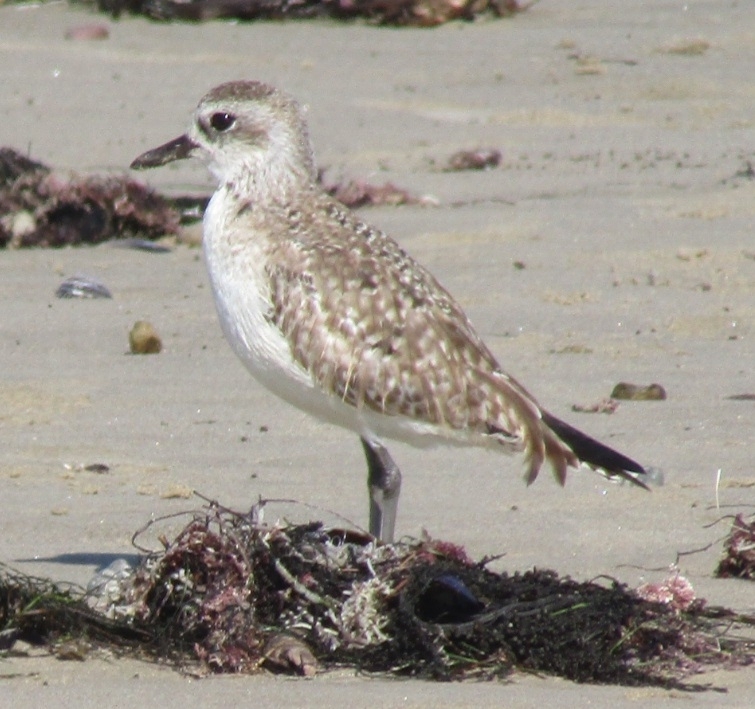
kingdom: Animalia
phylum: Chordata
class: Aves
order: Charadriiformes
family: Charadriidae
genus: Pluvialis
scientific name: Pluvialis squatarola
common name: Grey plover
